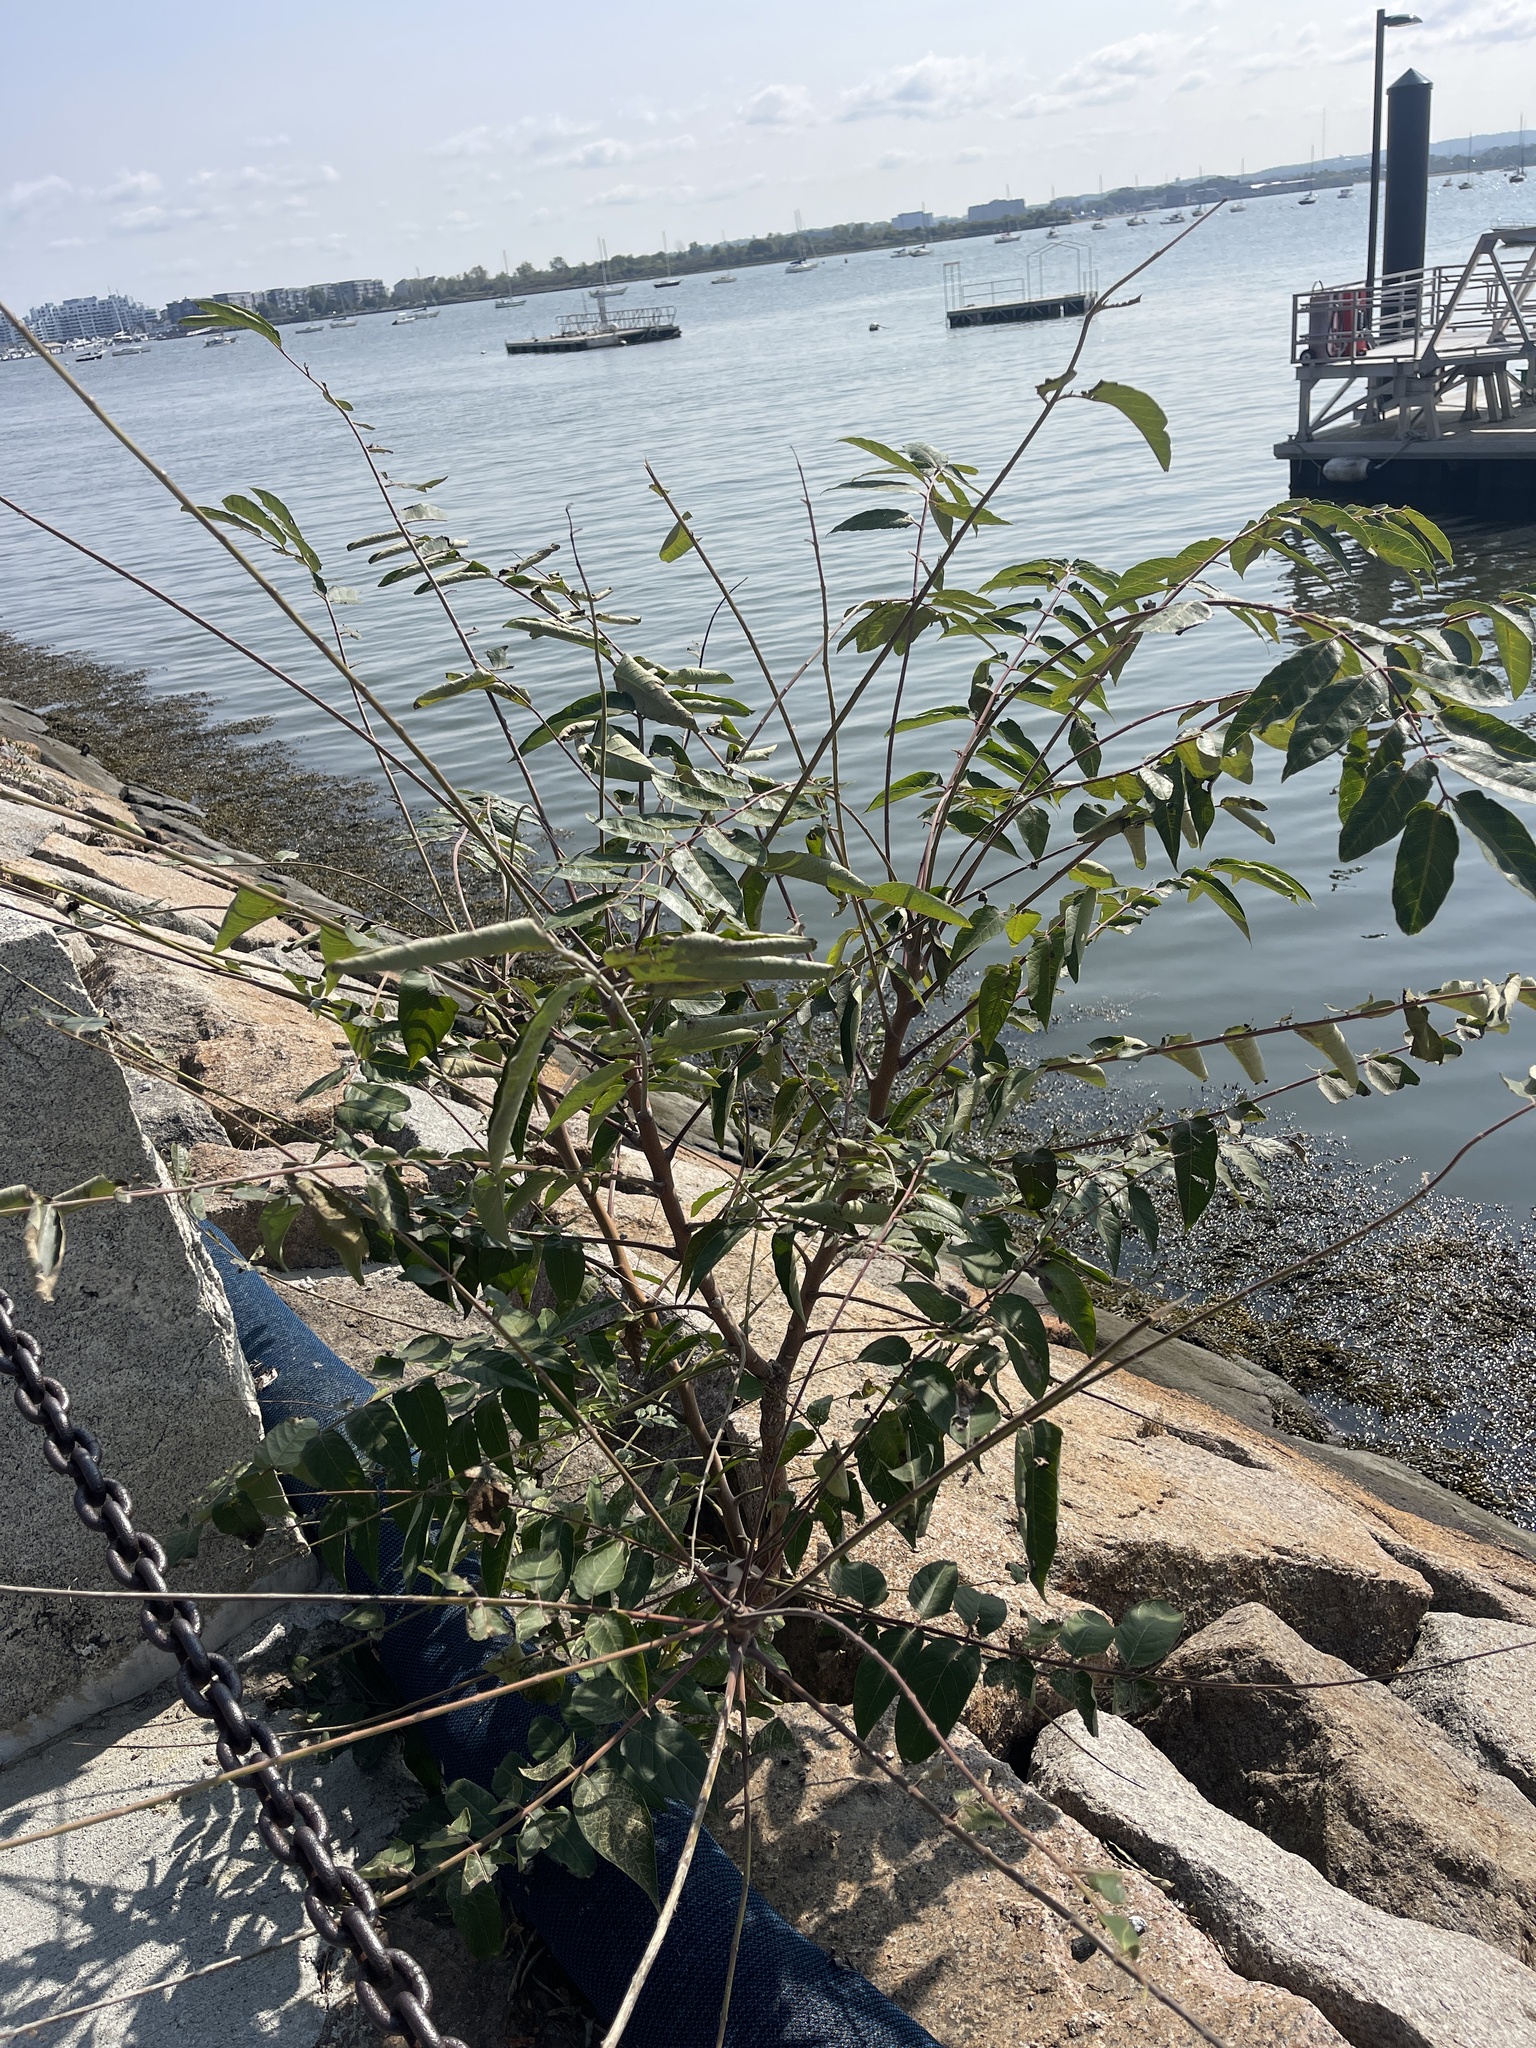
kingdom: Plantae
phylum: Tracheophyta
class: Magnoliopsida
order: Sapindales
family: Simaroubaceae
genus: Ailanthus
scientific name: Ailanthus altissima
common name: Tree-of-heaven
